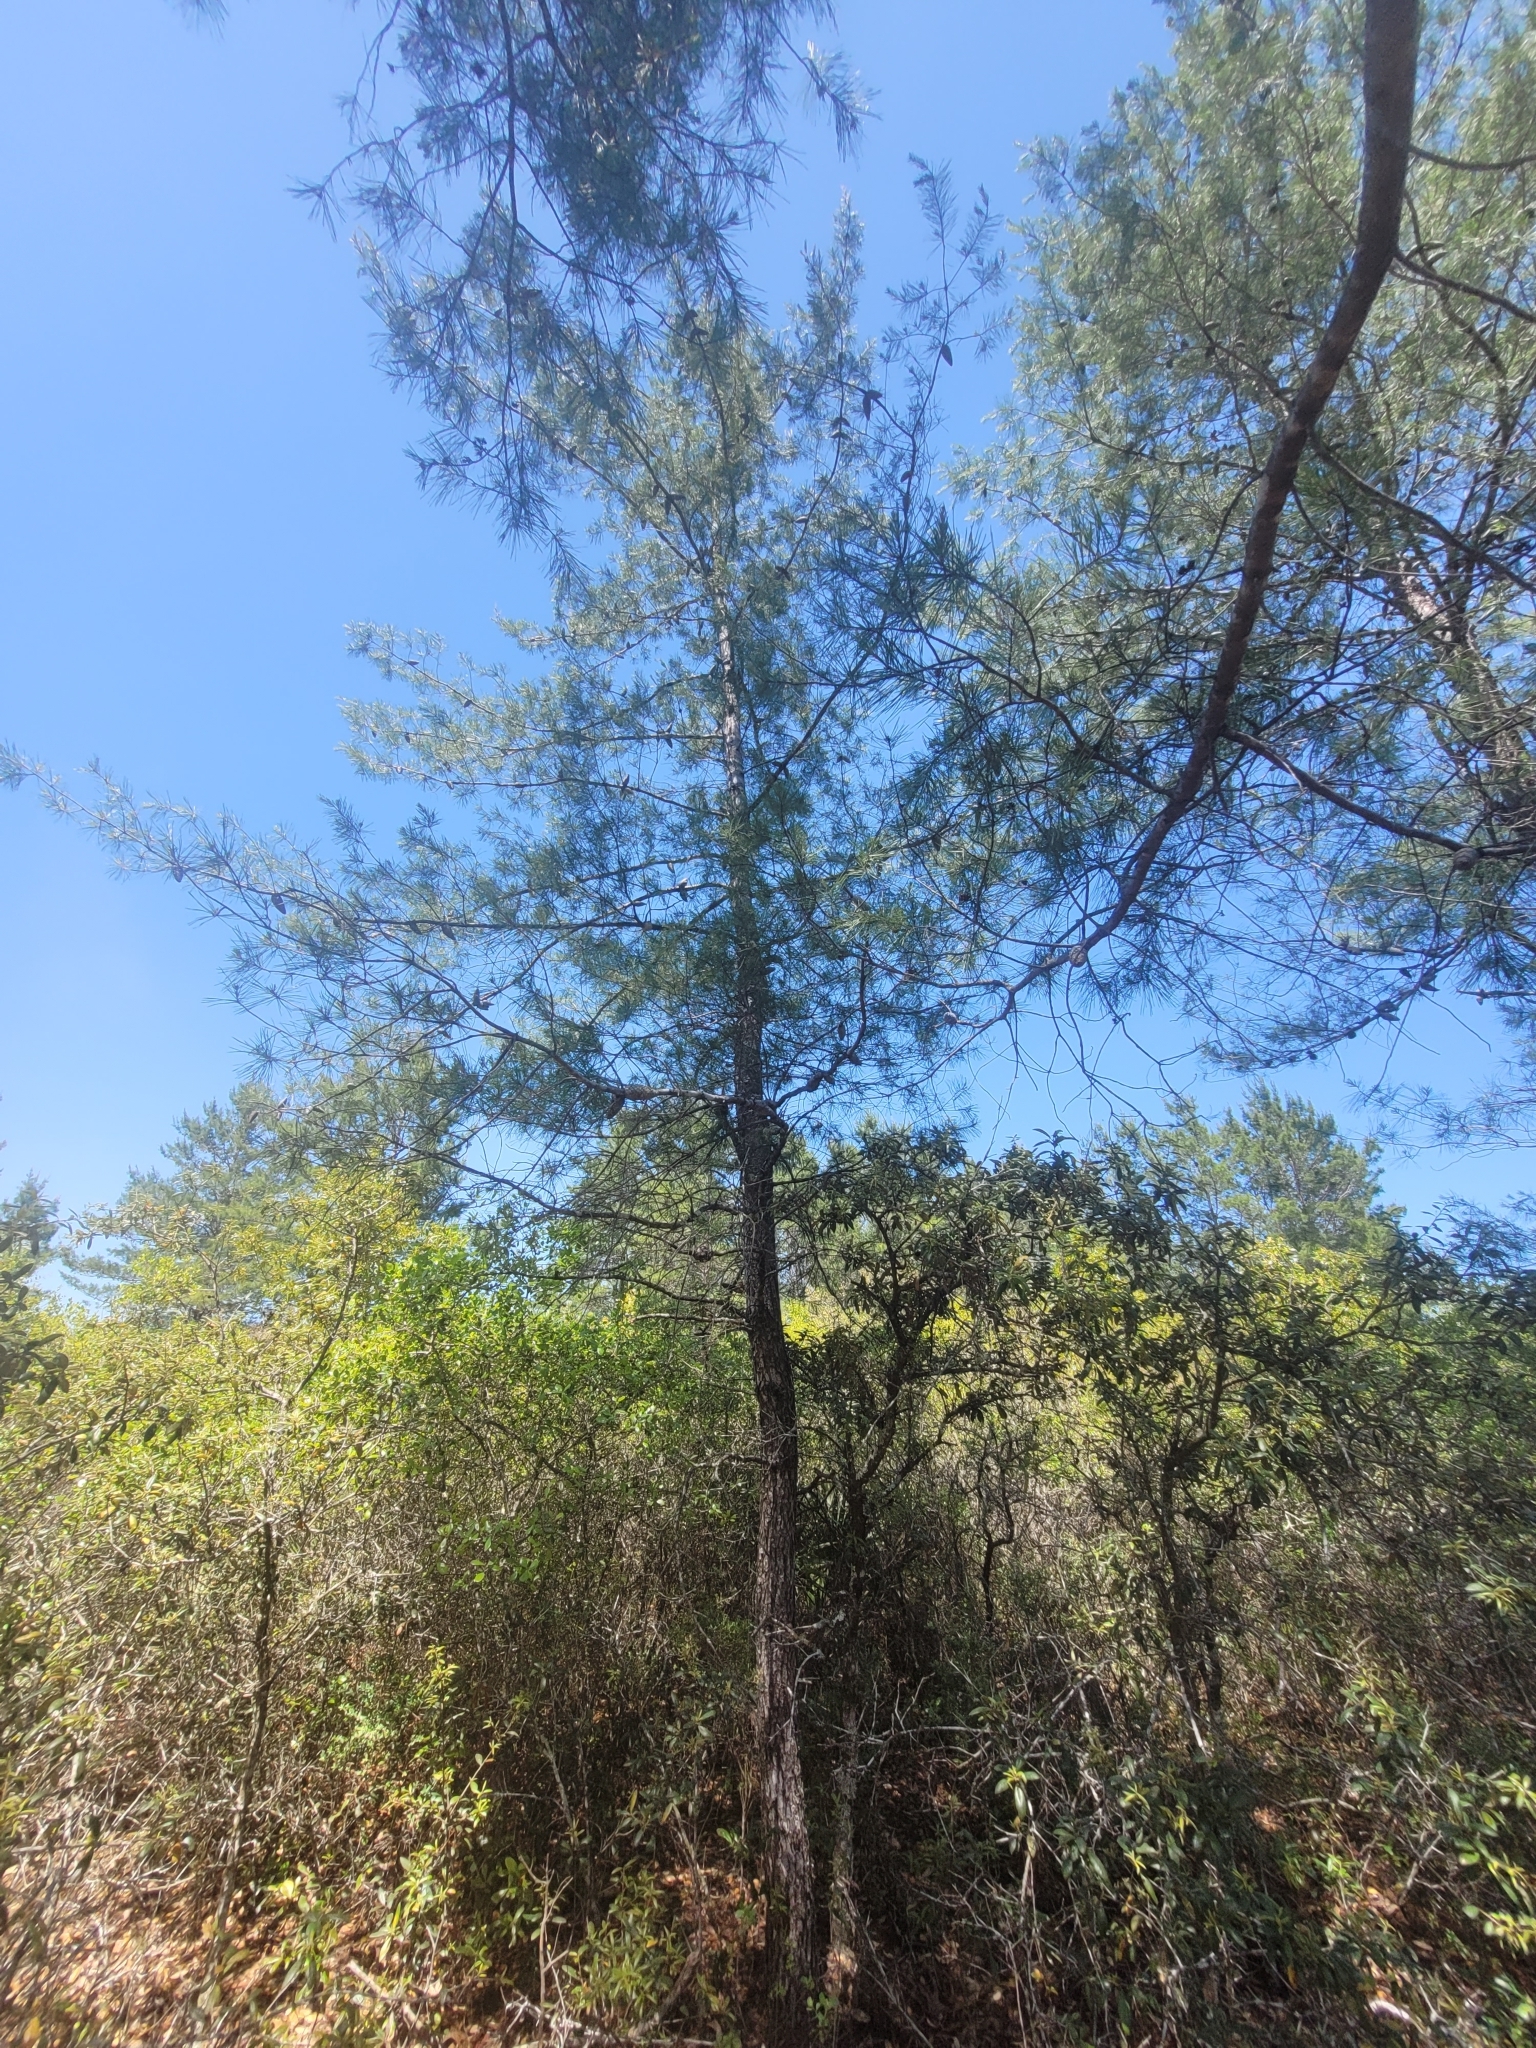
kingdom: Plantae
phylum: Tracheophyta
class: Pinopsida
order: Pinales
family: Pinaceae
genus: Pinus
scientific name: Pinus clausa
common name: Sand pine
